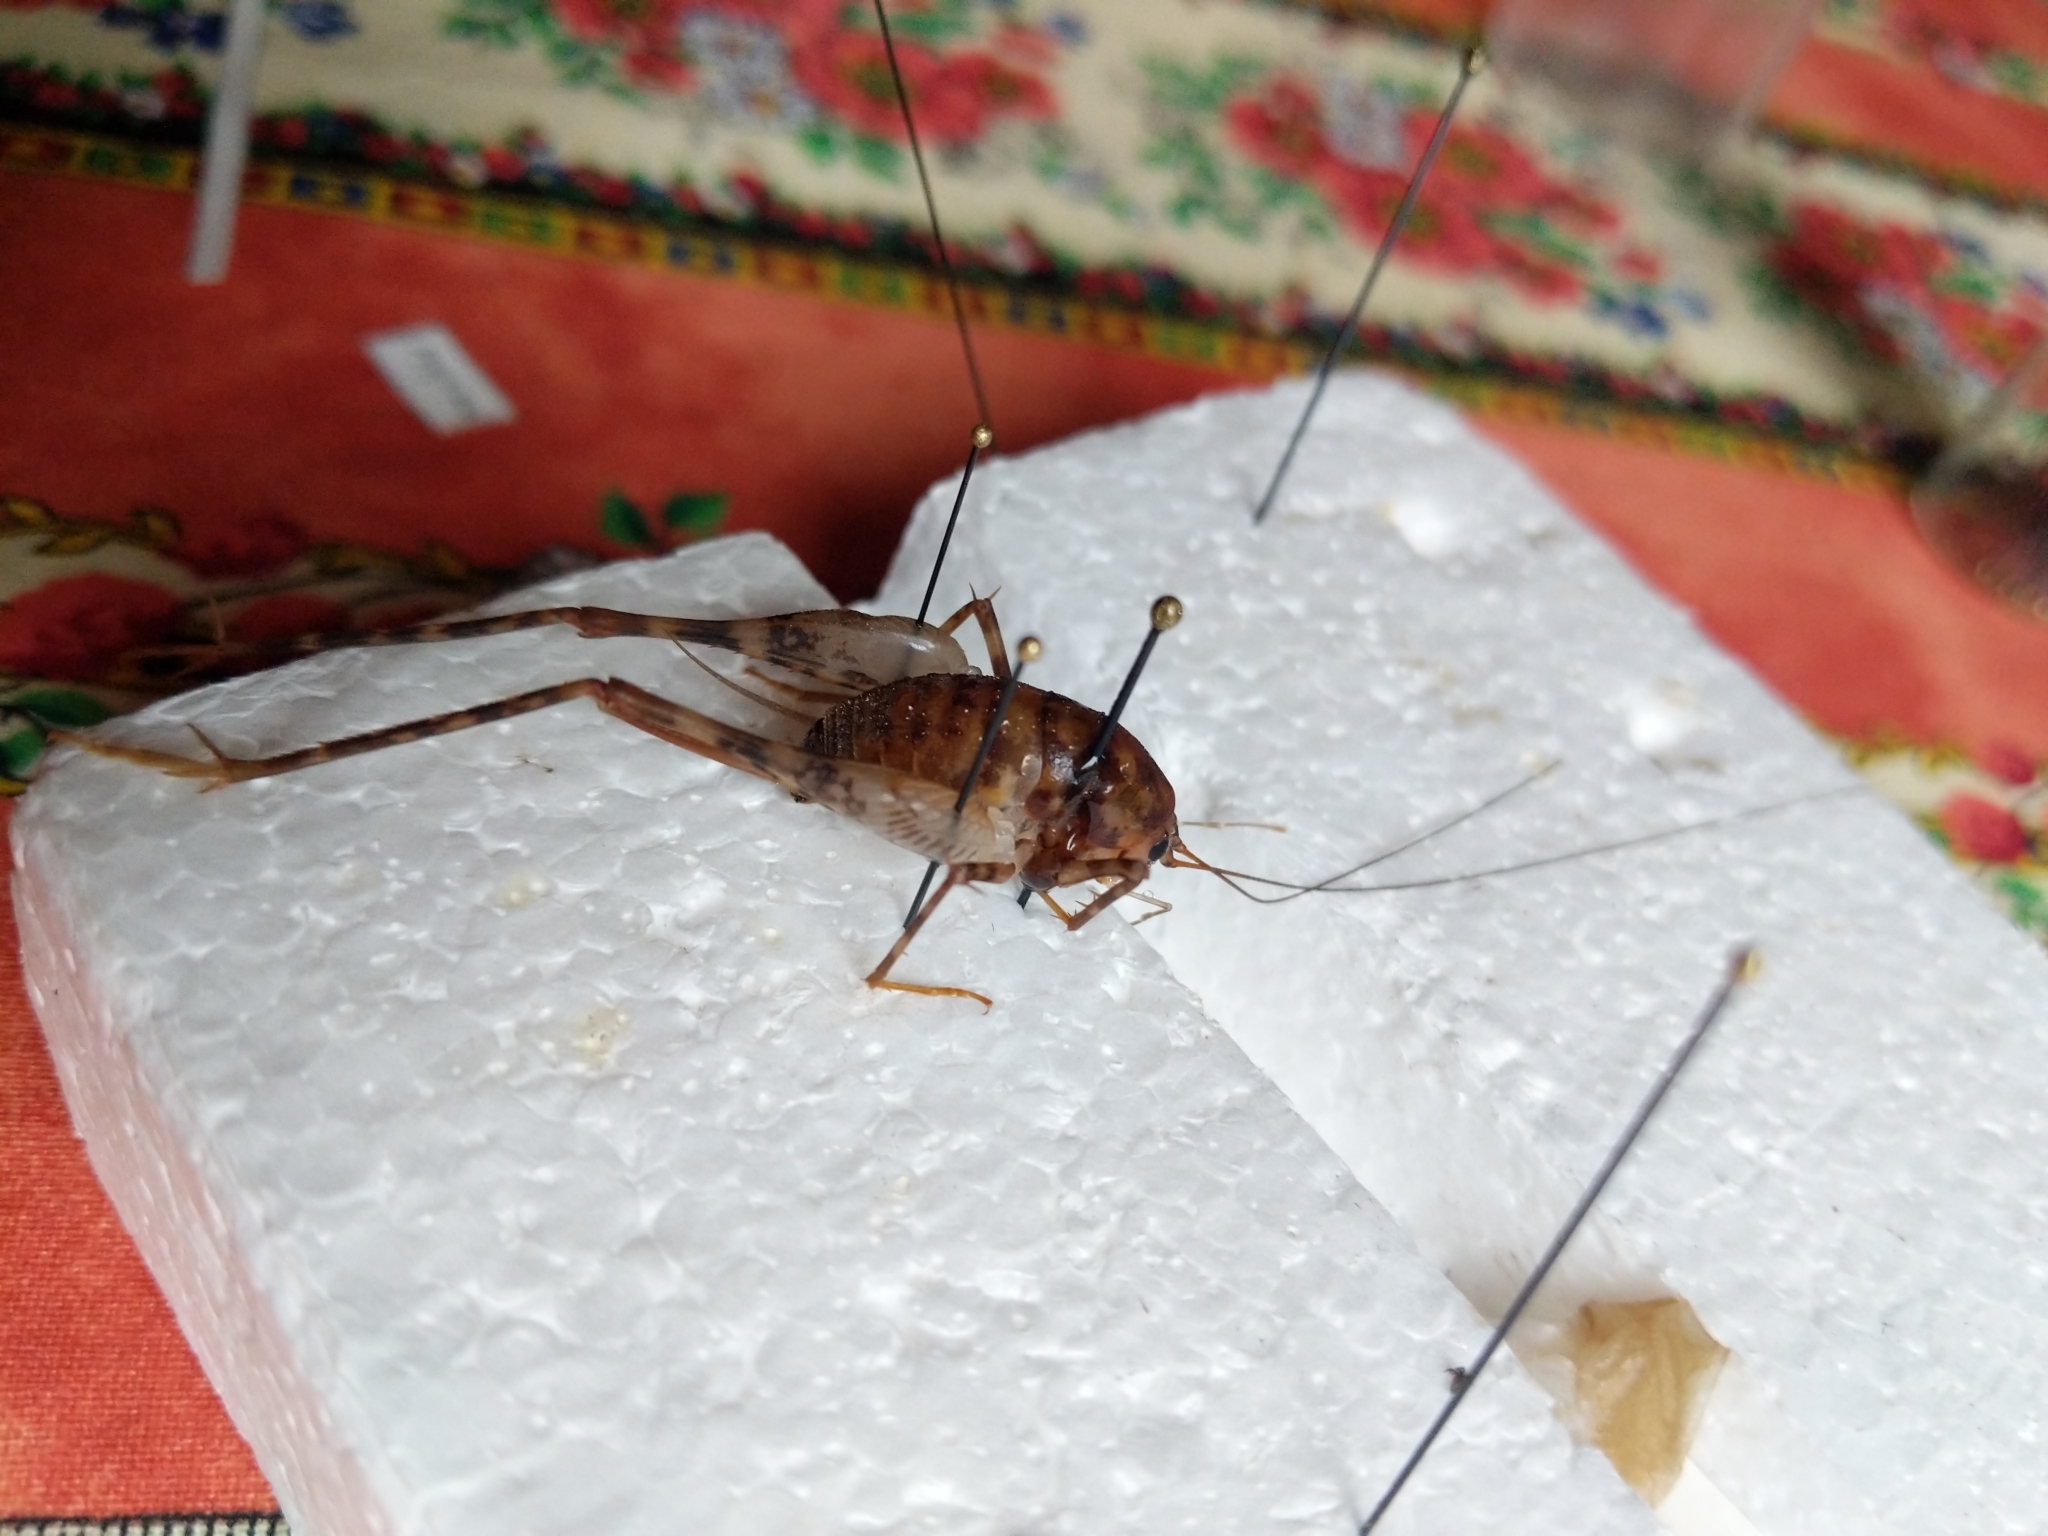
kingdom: Animalia
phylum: Arthropoda
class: Insecta
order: Orthoptera
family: Rhaphidophoridae
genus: Tachycines
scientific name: Tachycines asynamorus
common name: Greenhouse camel cricket
